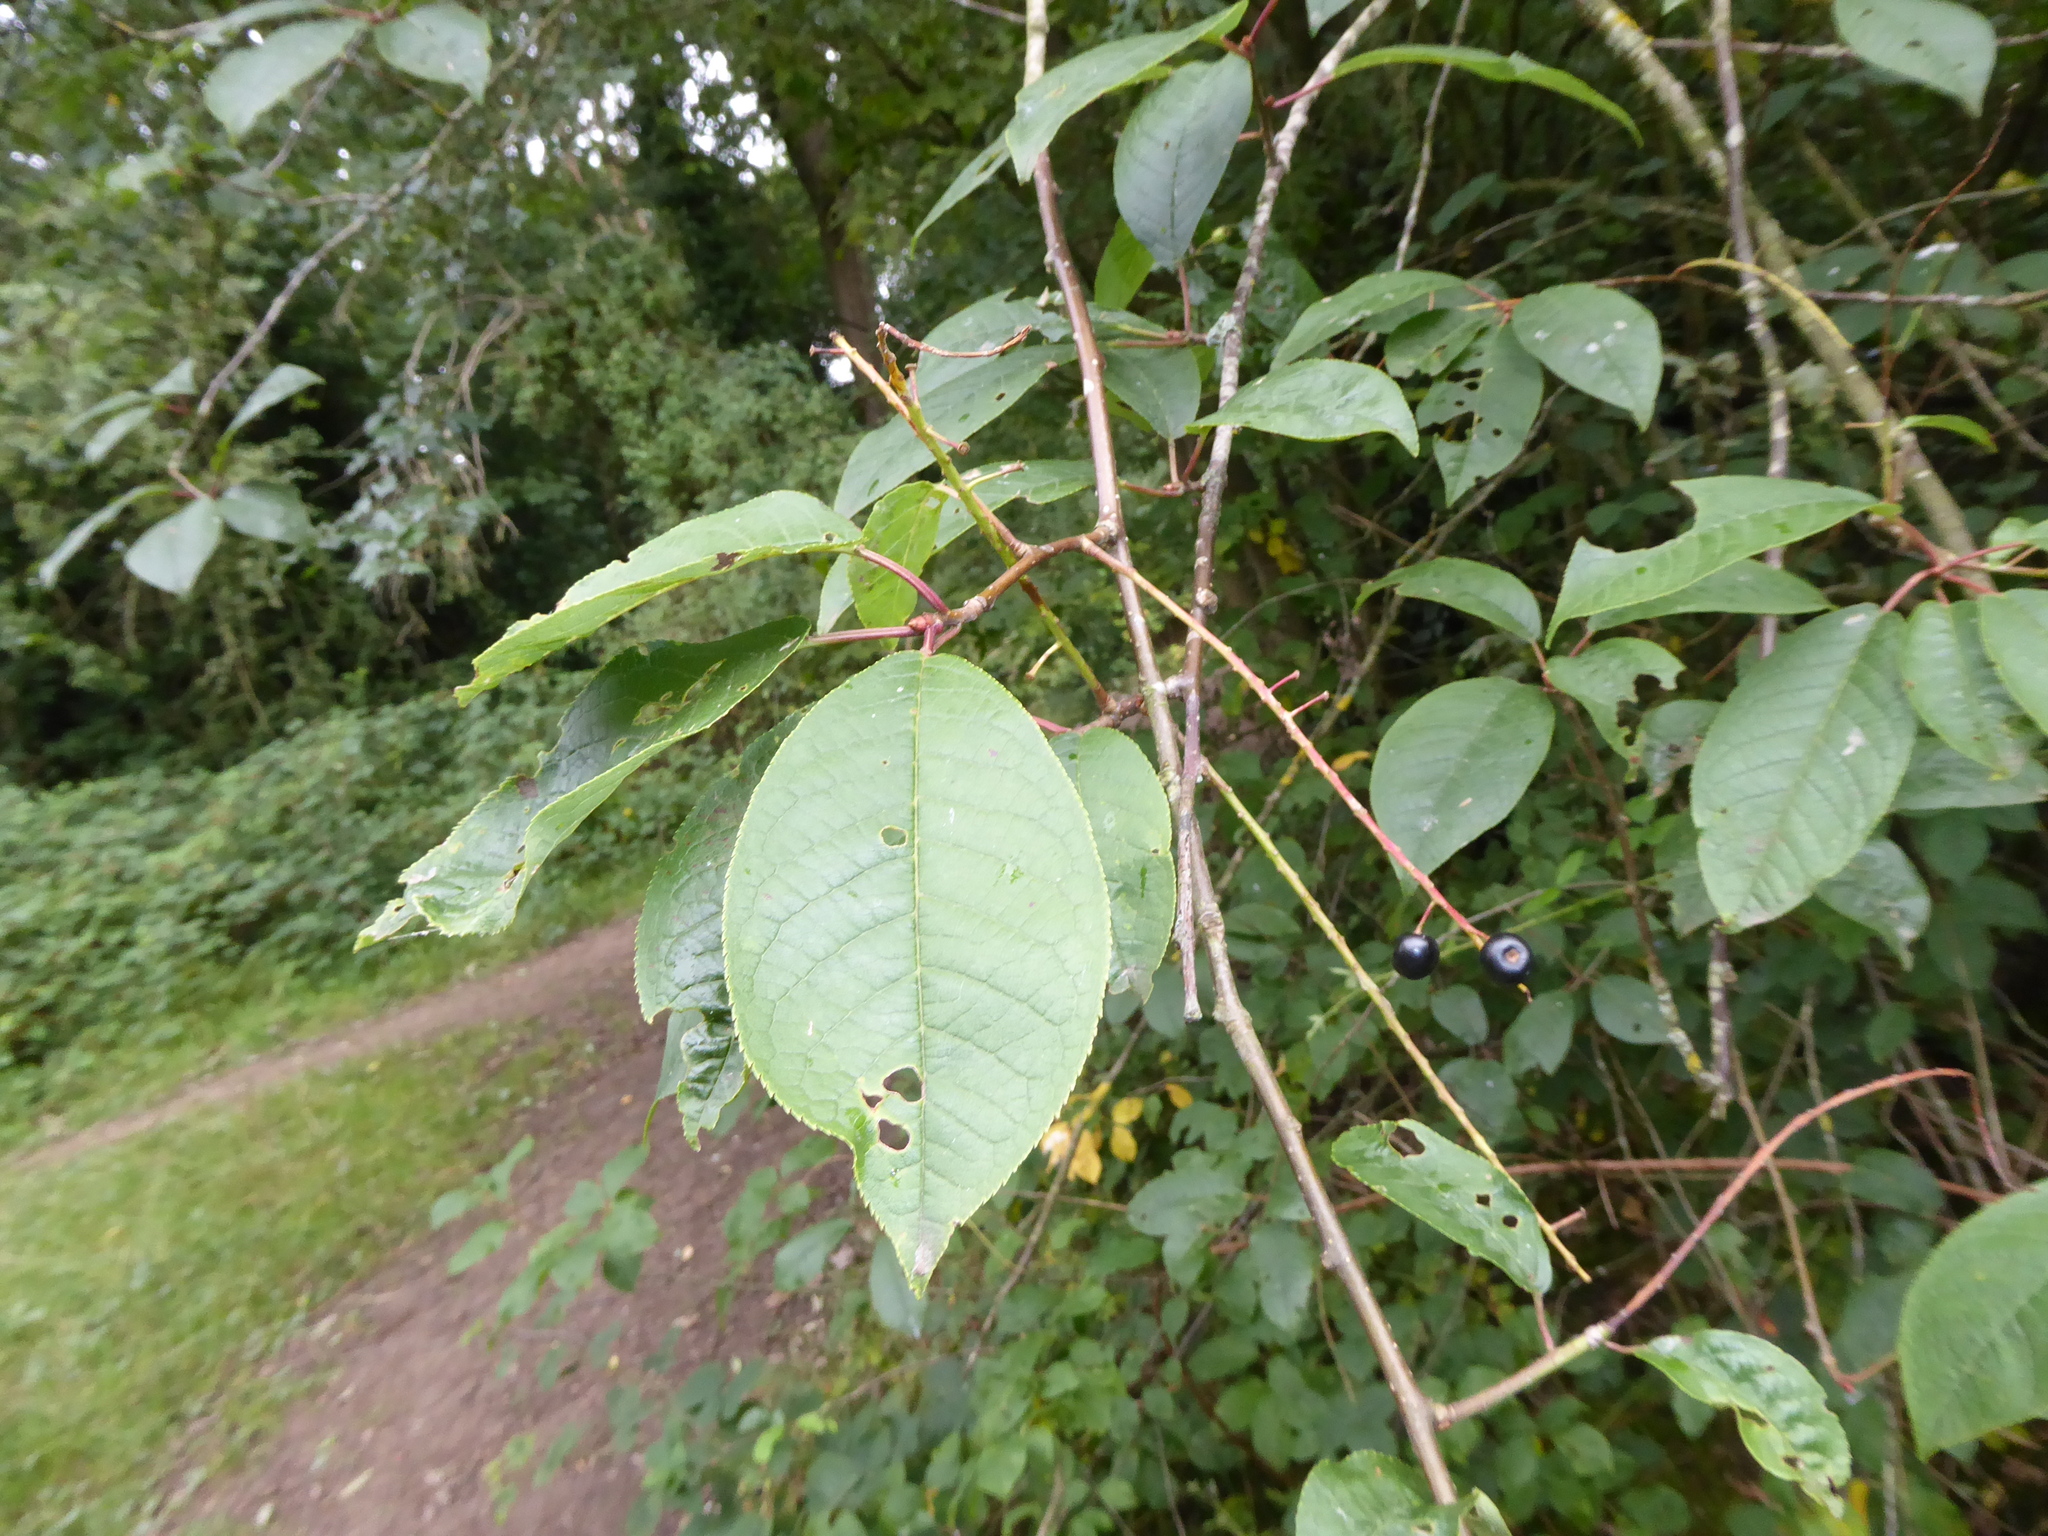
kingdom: Plantae
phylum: Tracheophyta
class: Magnoliopsida
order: Rosales
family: Rosaceae
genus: Prunus
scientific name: Prunus padus
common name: Bird cherry
